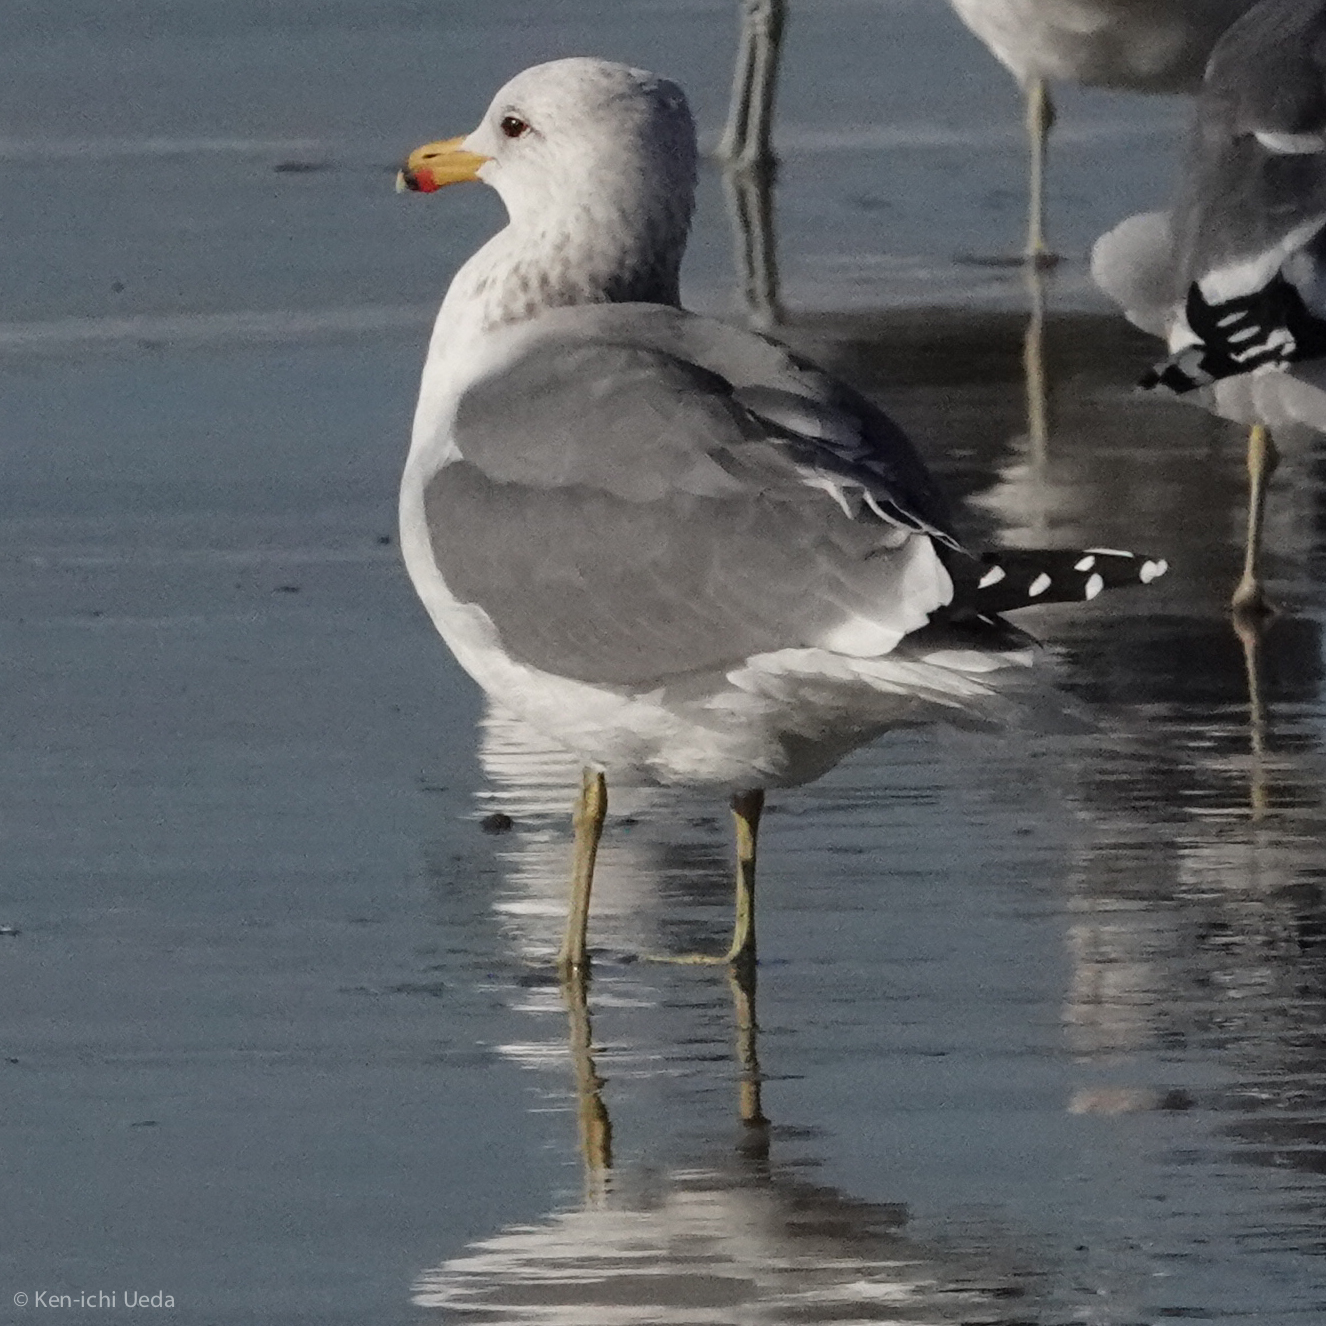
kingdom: Animalia
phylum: Chordata
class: Aves
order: Charadriiformes
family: Laridae
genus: Larus
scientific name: Larus californicus
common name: California gull
